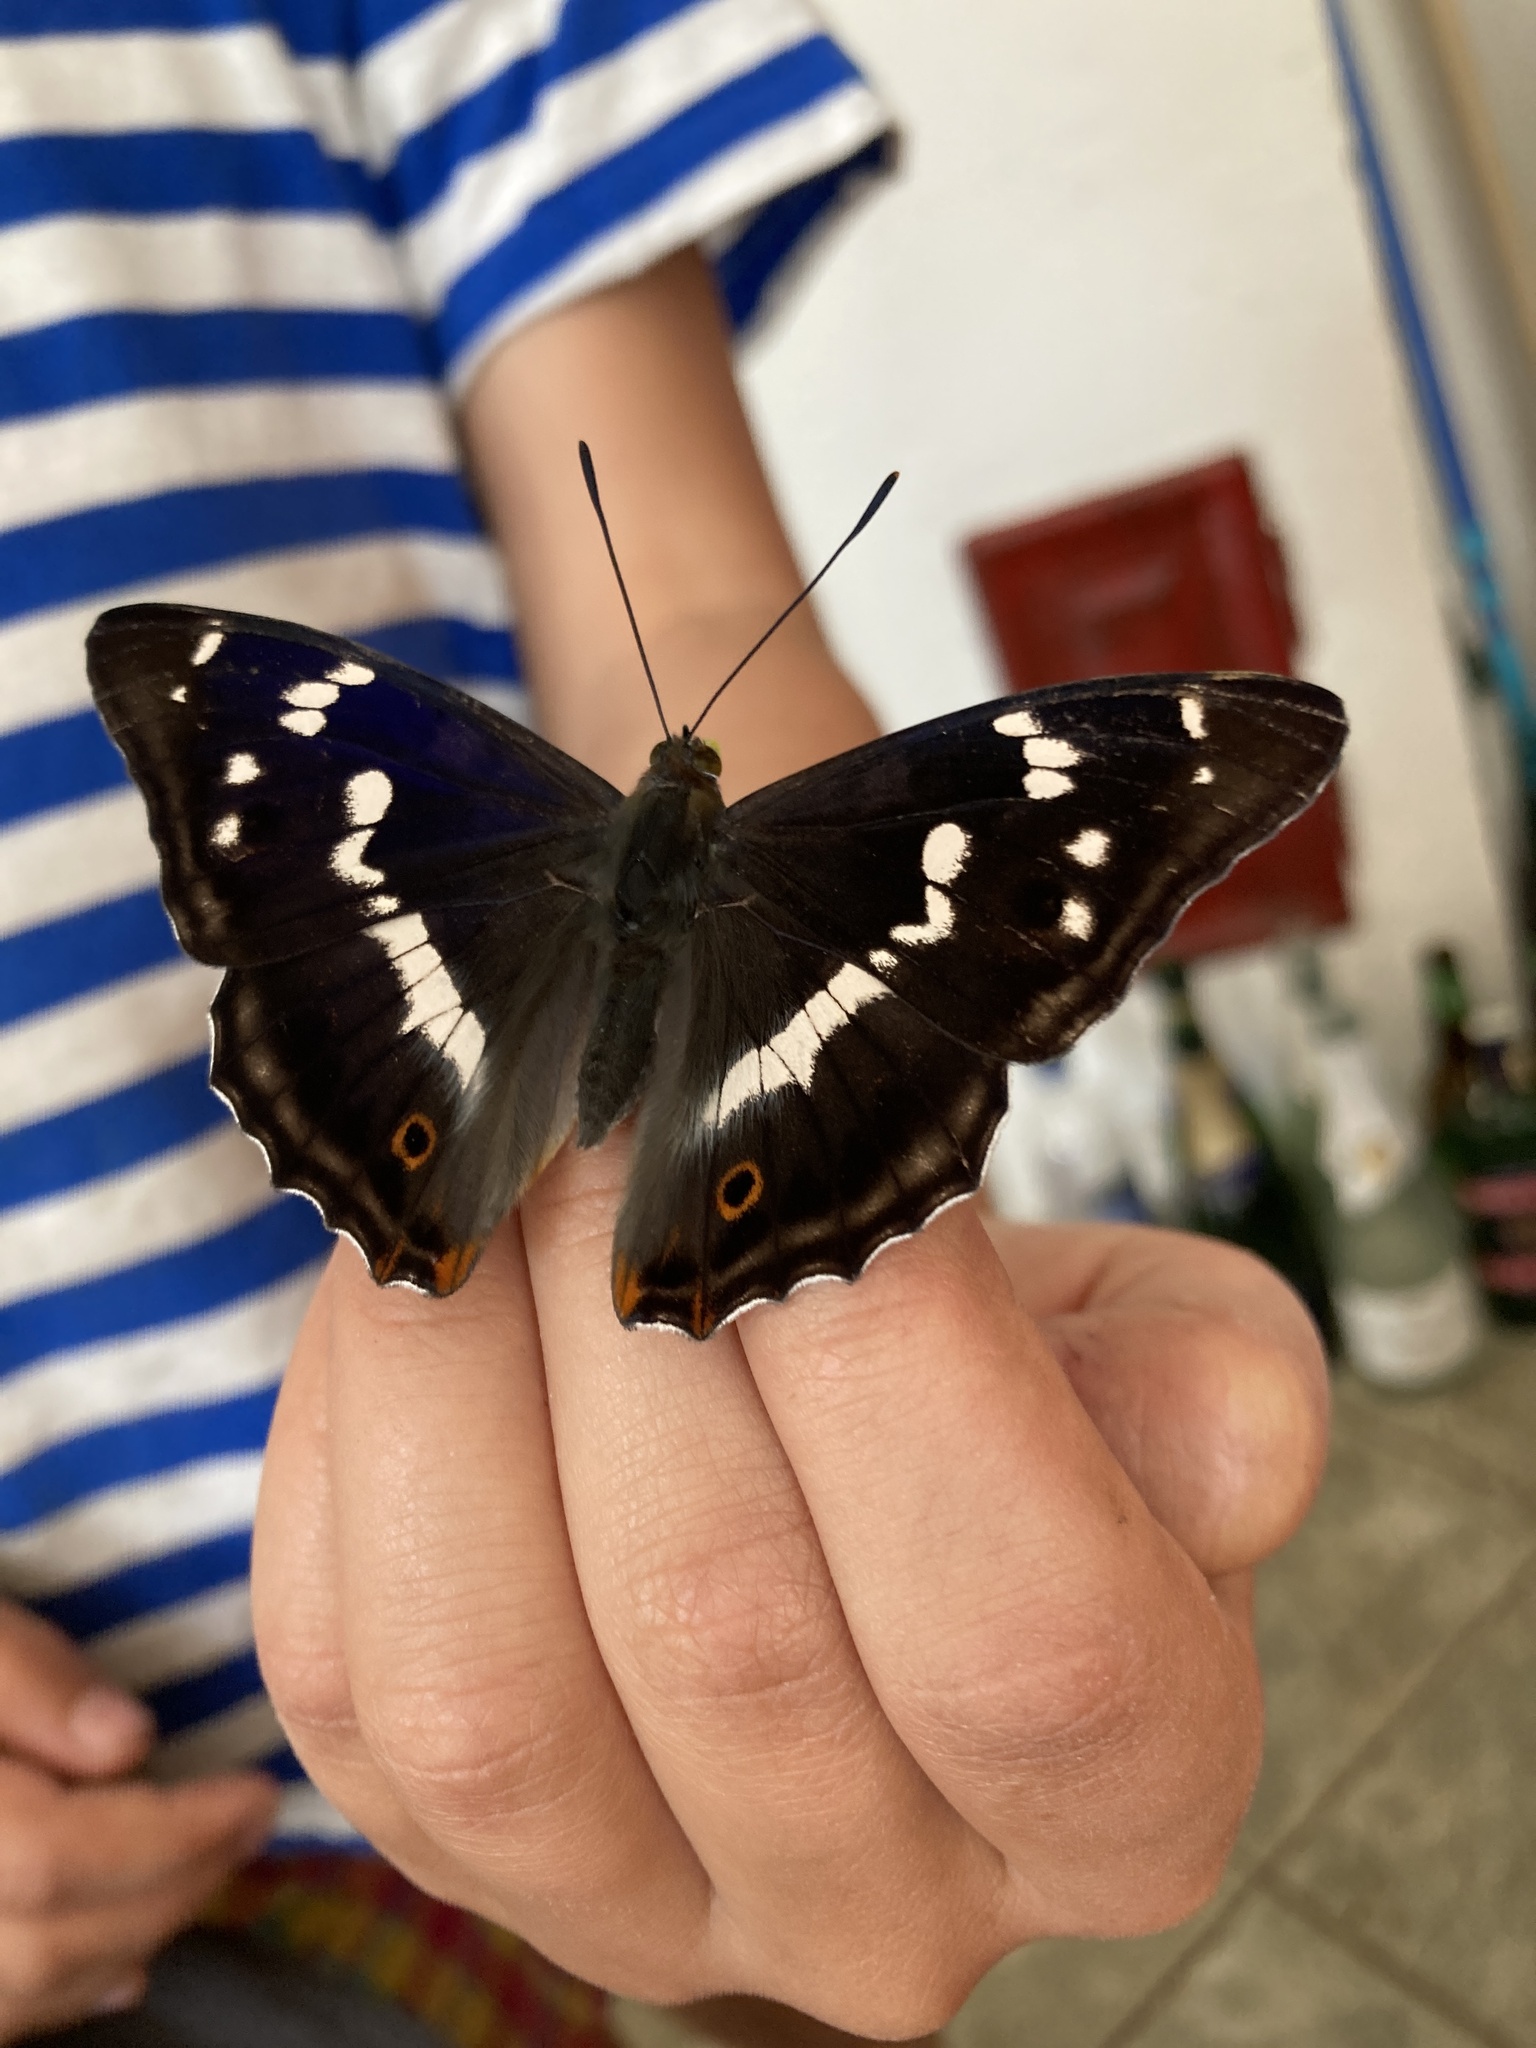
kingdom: Animalia
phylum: Arthropoda
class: Insecta
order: Lepidoptera
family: Nymphalidae
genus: Apatura
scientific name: Apatura iris
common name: Purple emperor
